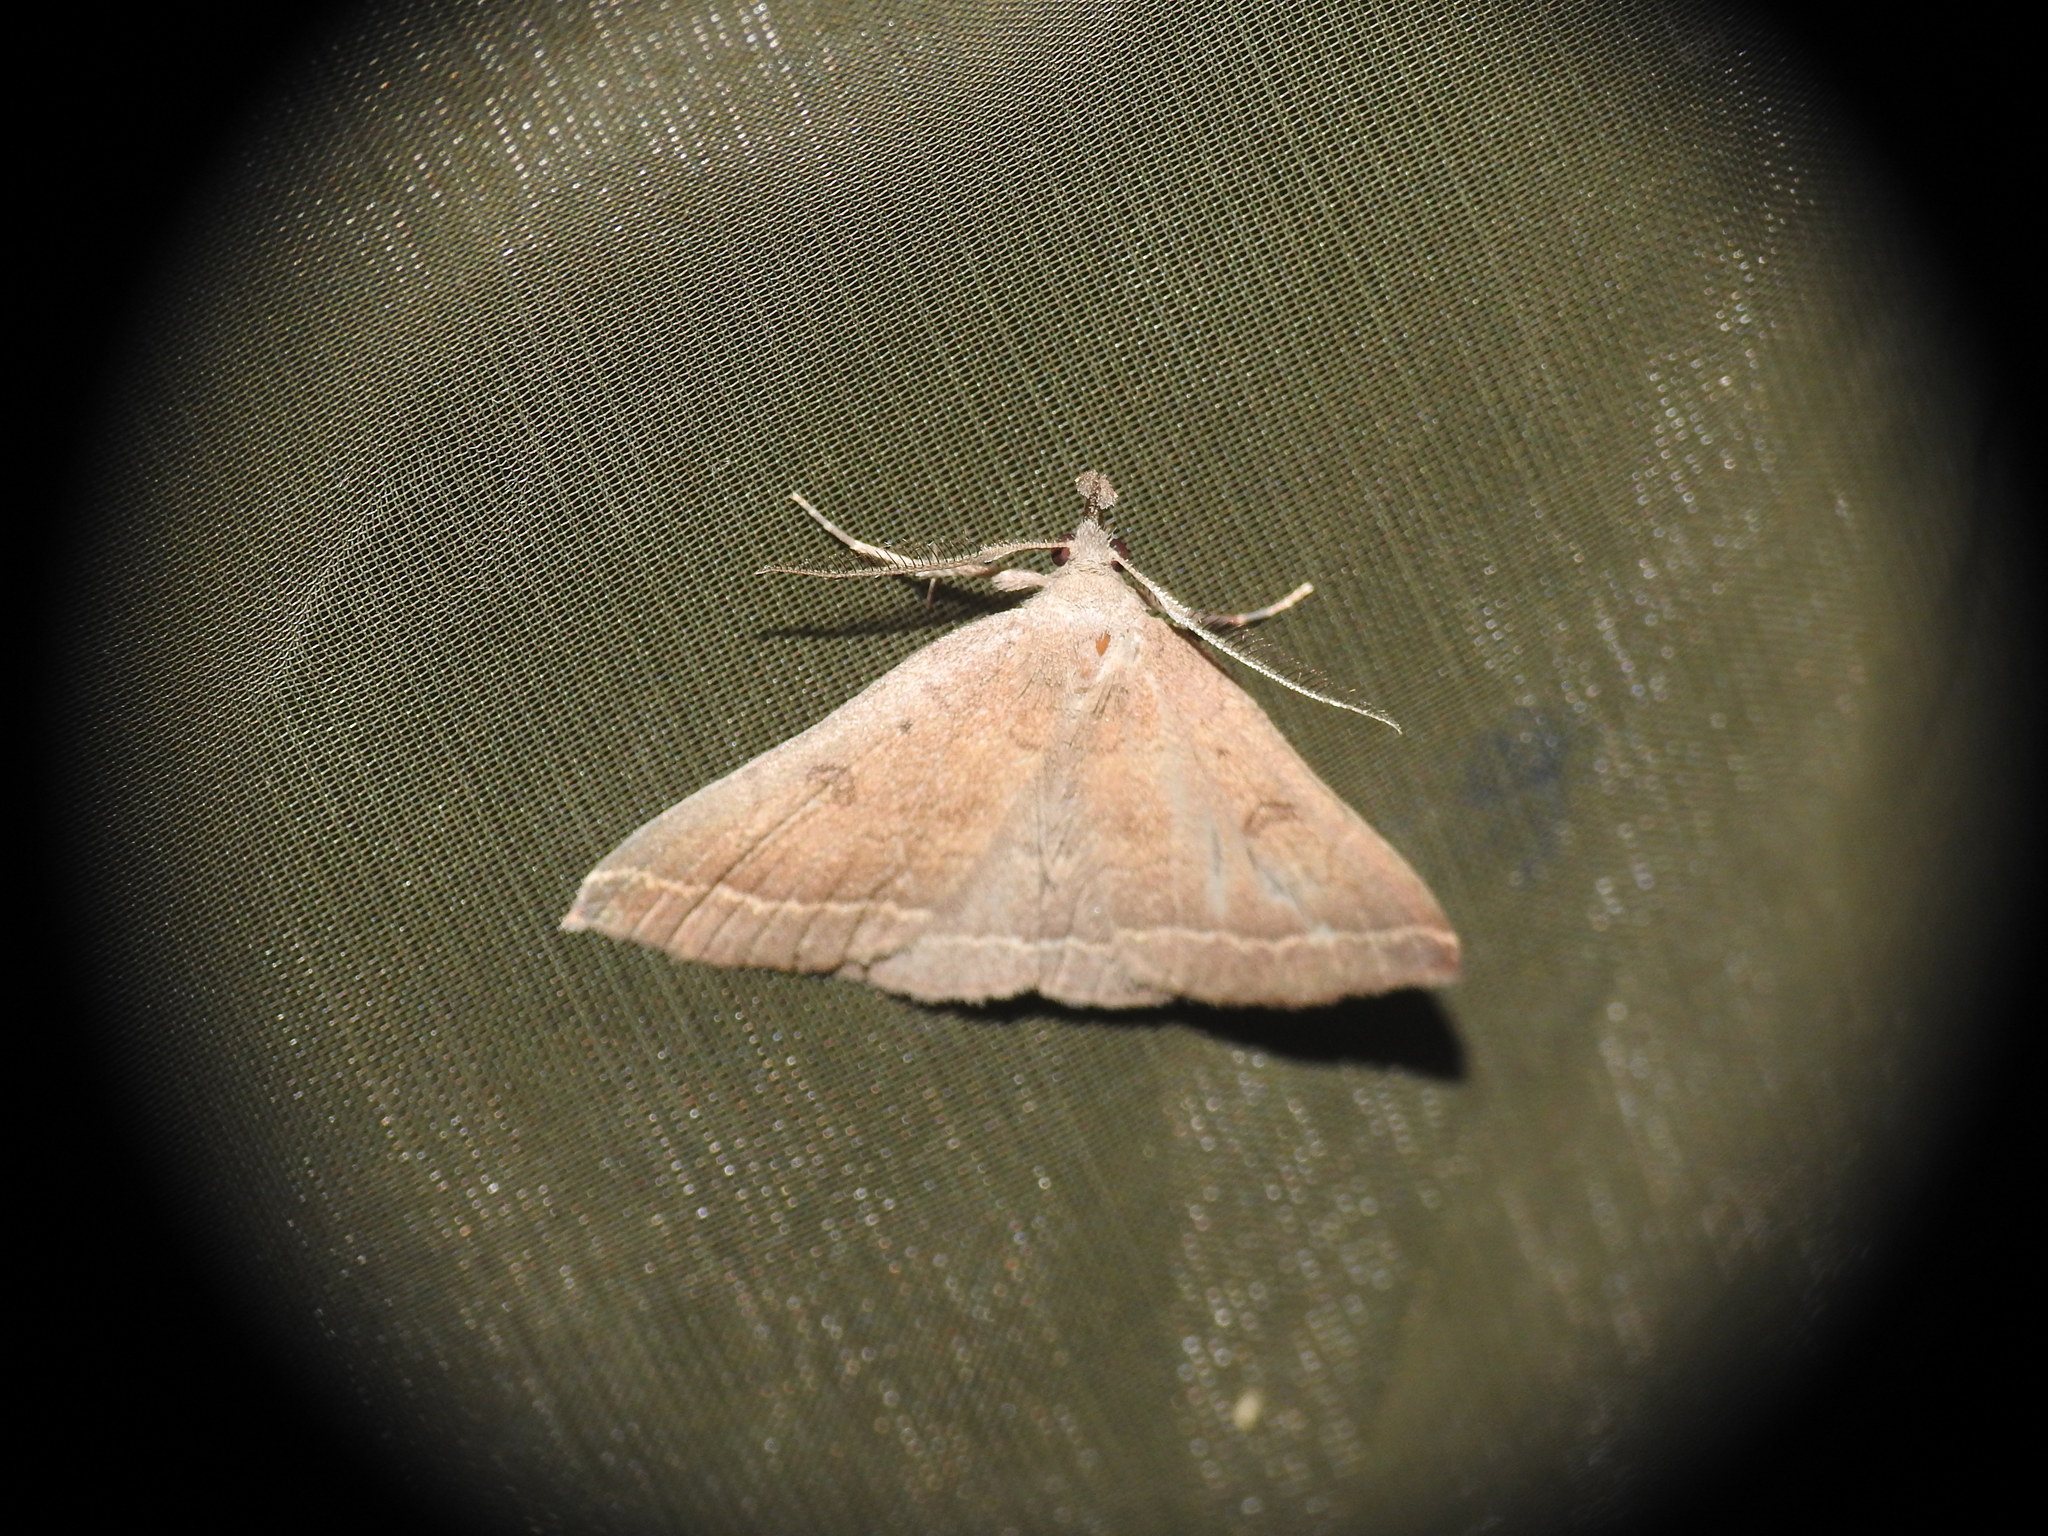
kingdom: Animalia
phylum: Arthropoda
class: Insecta
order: Lepidoptera
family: Erebidae
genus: Pechipogo
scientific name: Pechipogo plumigeralis
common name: Plumed fan-foot
